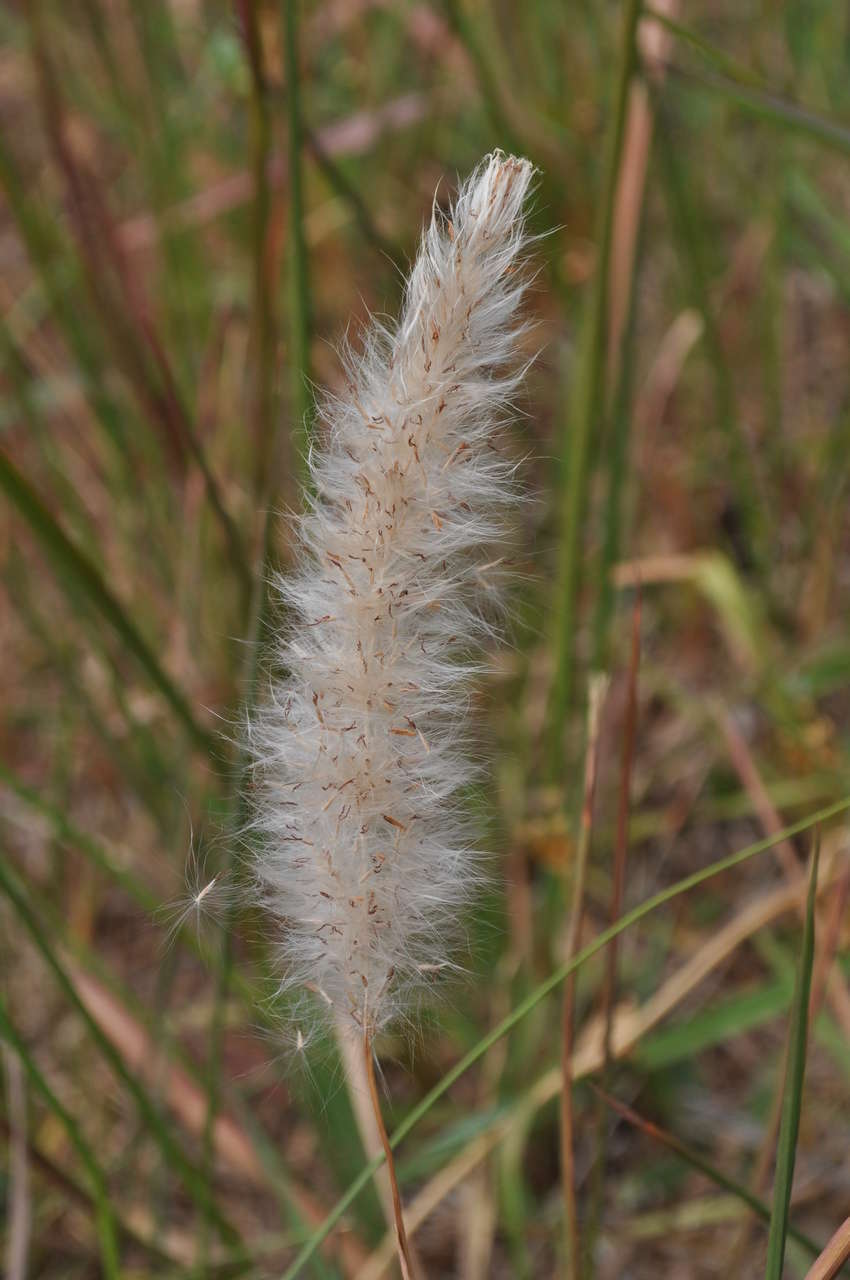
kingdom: Plantae
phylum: Tracheophyta
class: Liliopsida
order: Poales
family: Poaceae
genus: Imperata
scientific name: Imperata cylindrica
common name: Cogongrass
